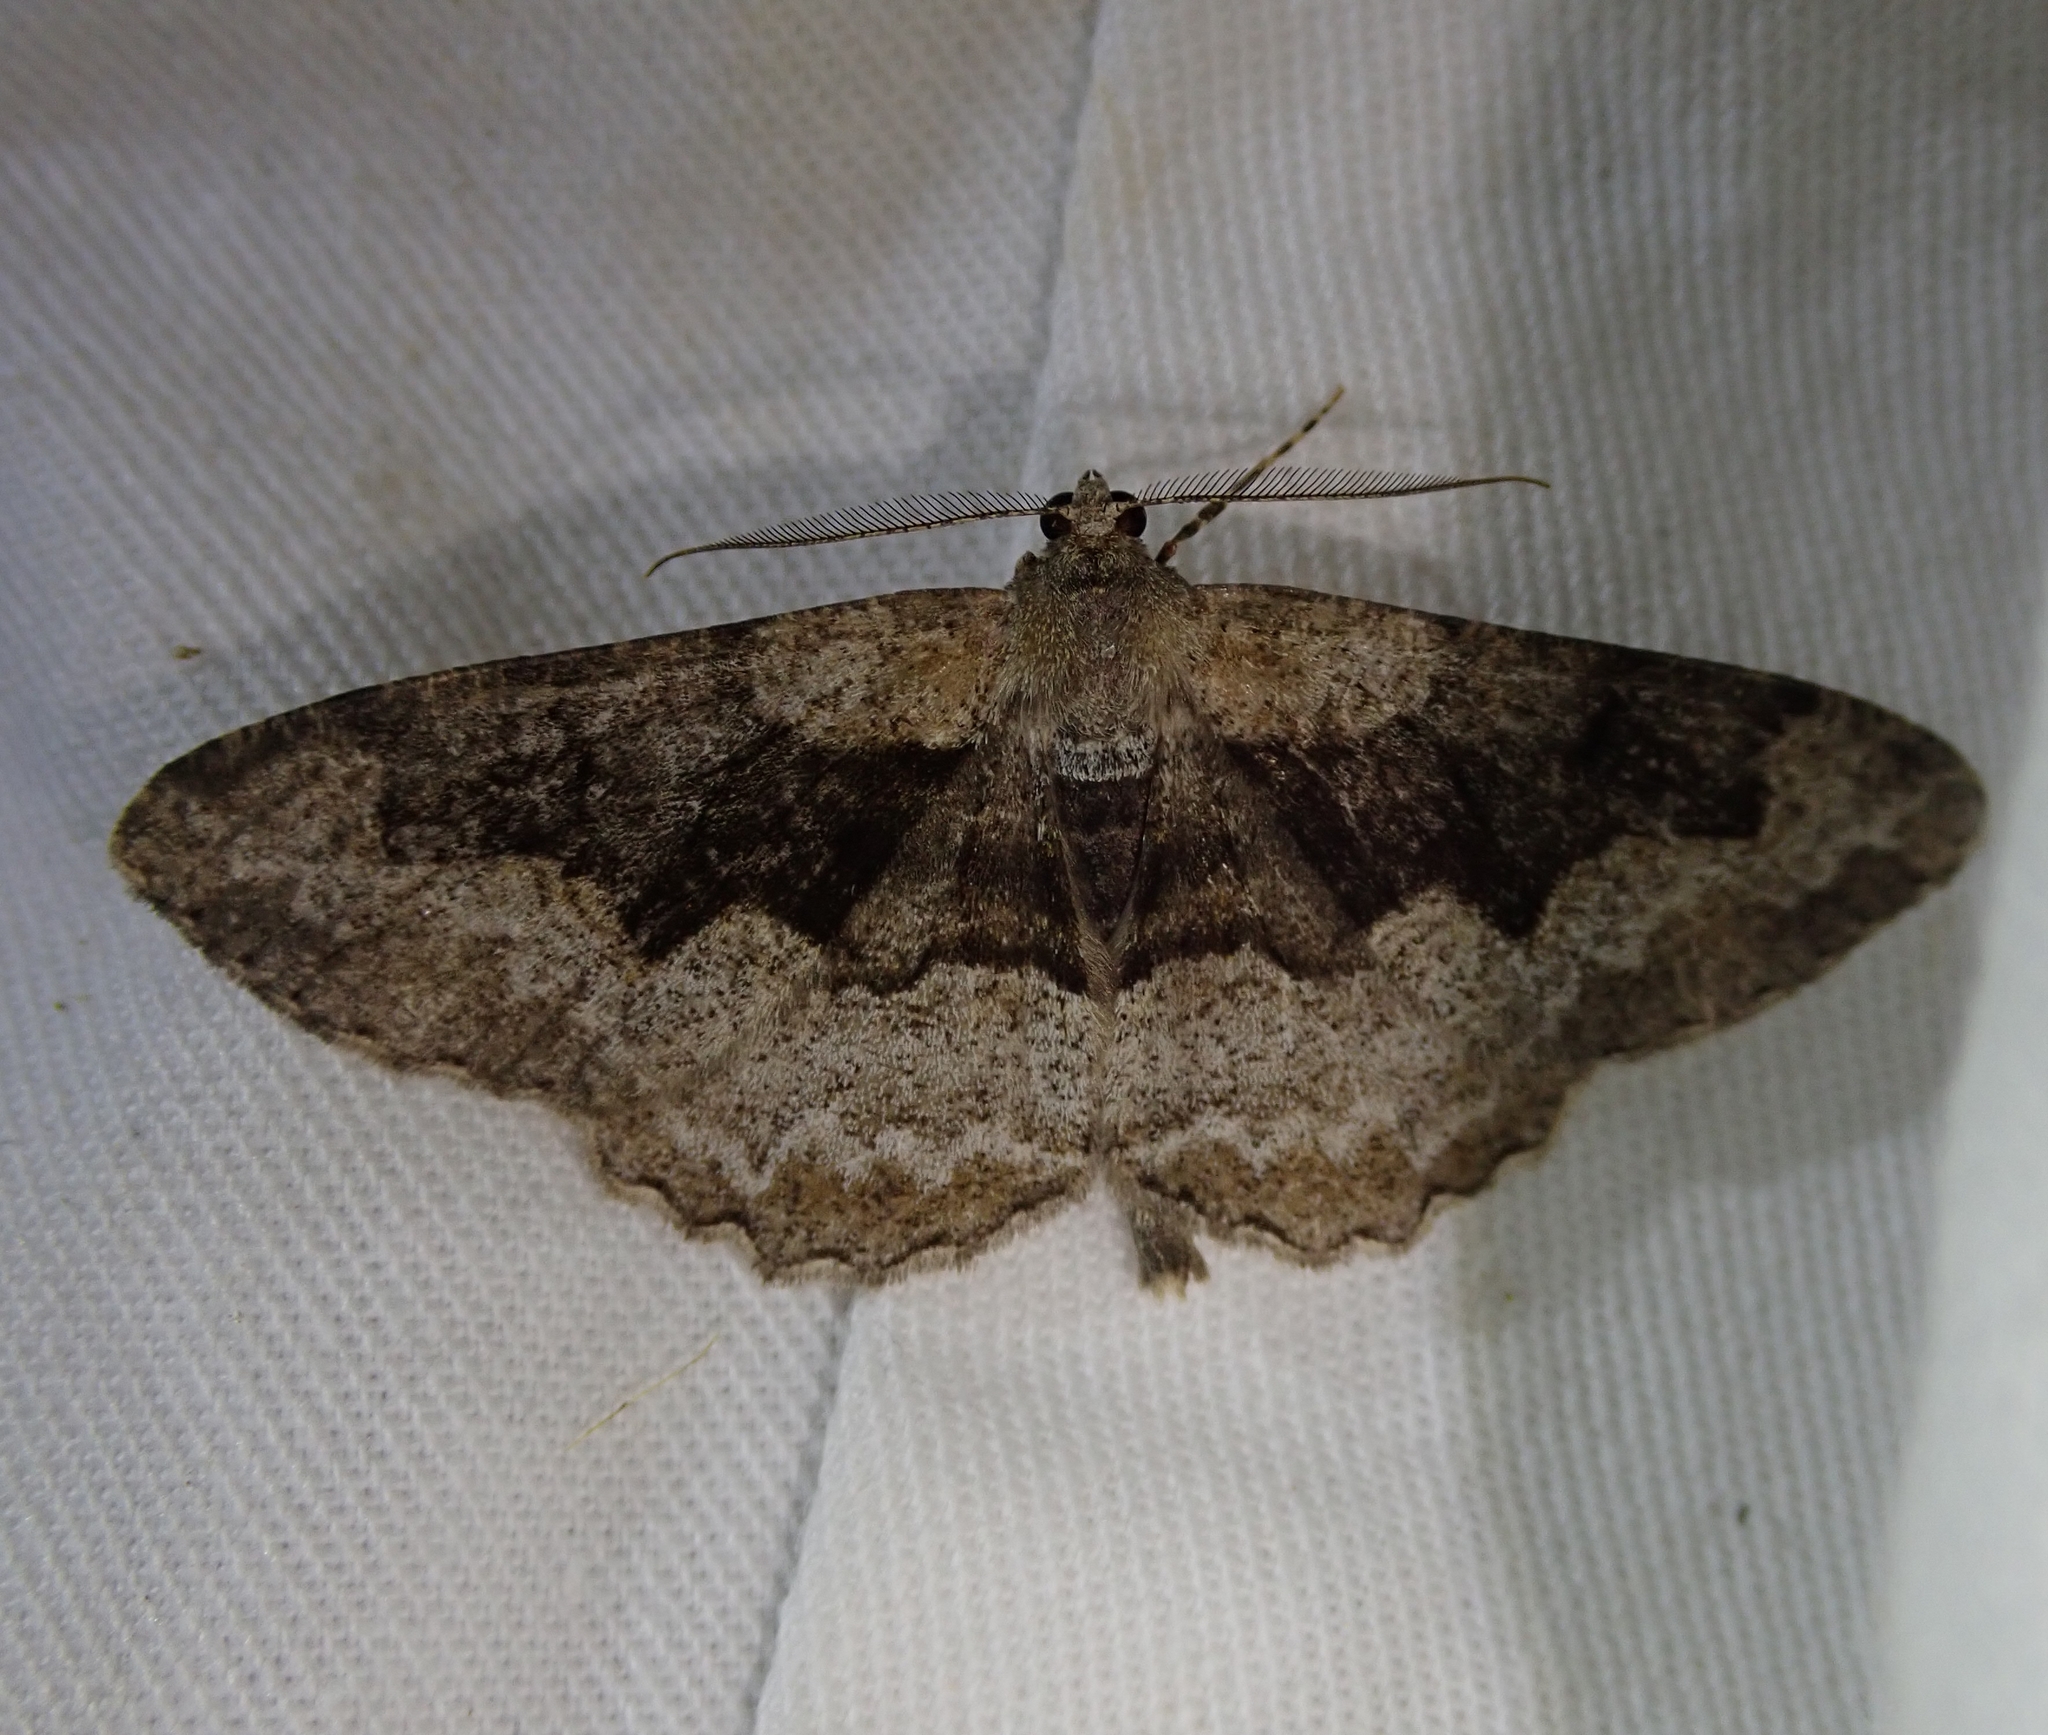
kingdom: Animalia
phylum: Arthropoda
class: Insecta
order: Lepidoptera
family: Geometridae
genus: Alcis
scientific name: Alcis repandata
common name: Mottled beauty
